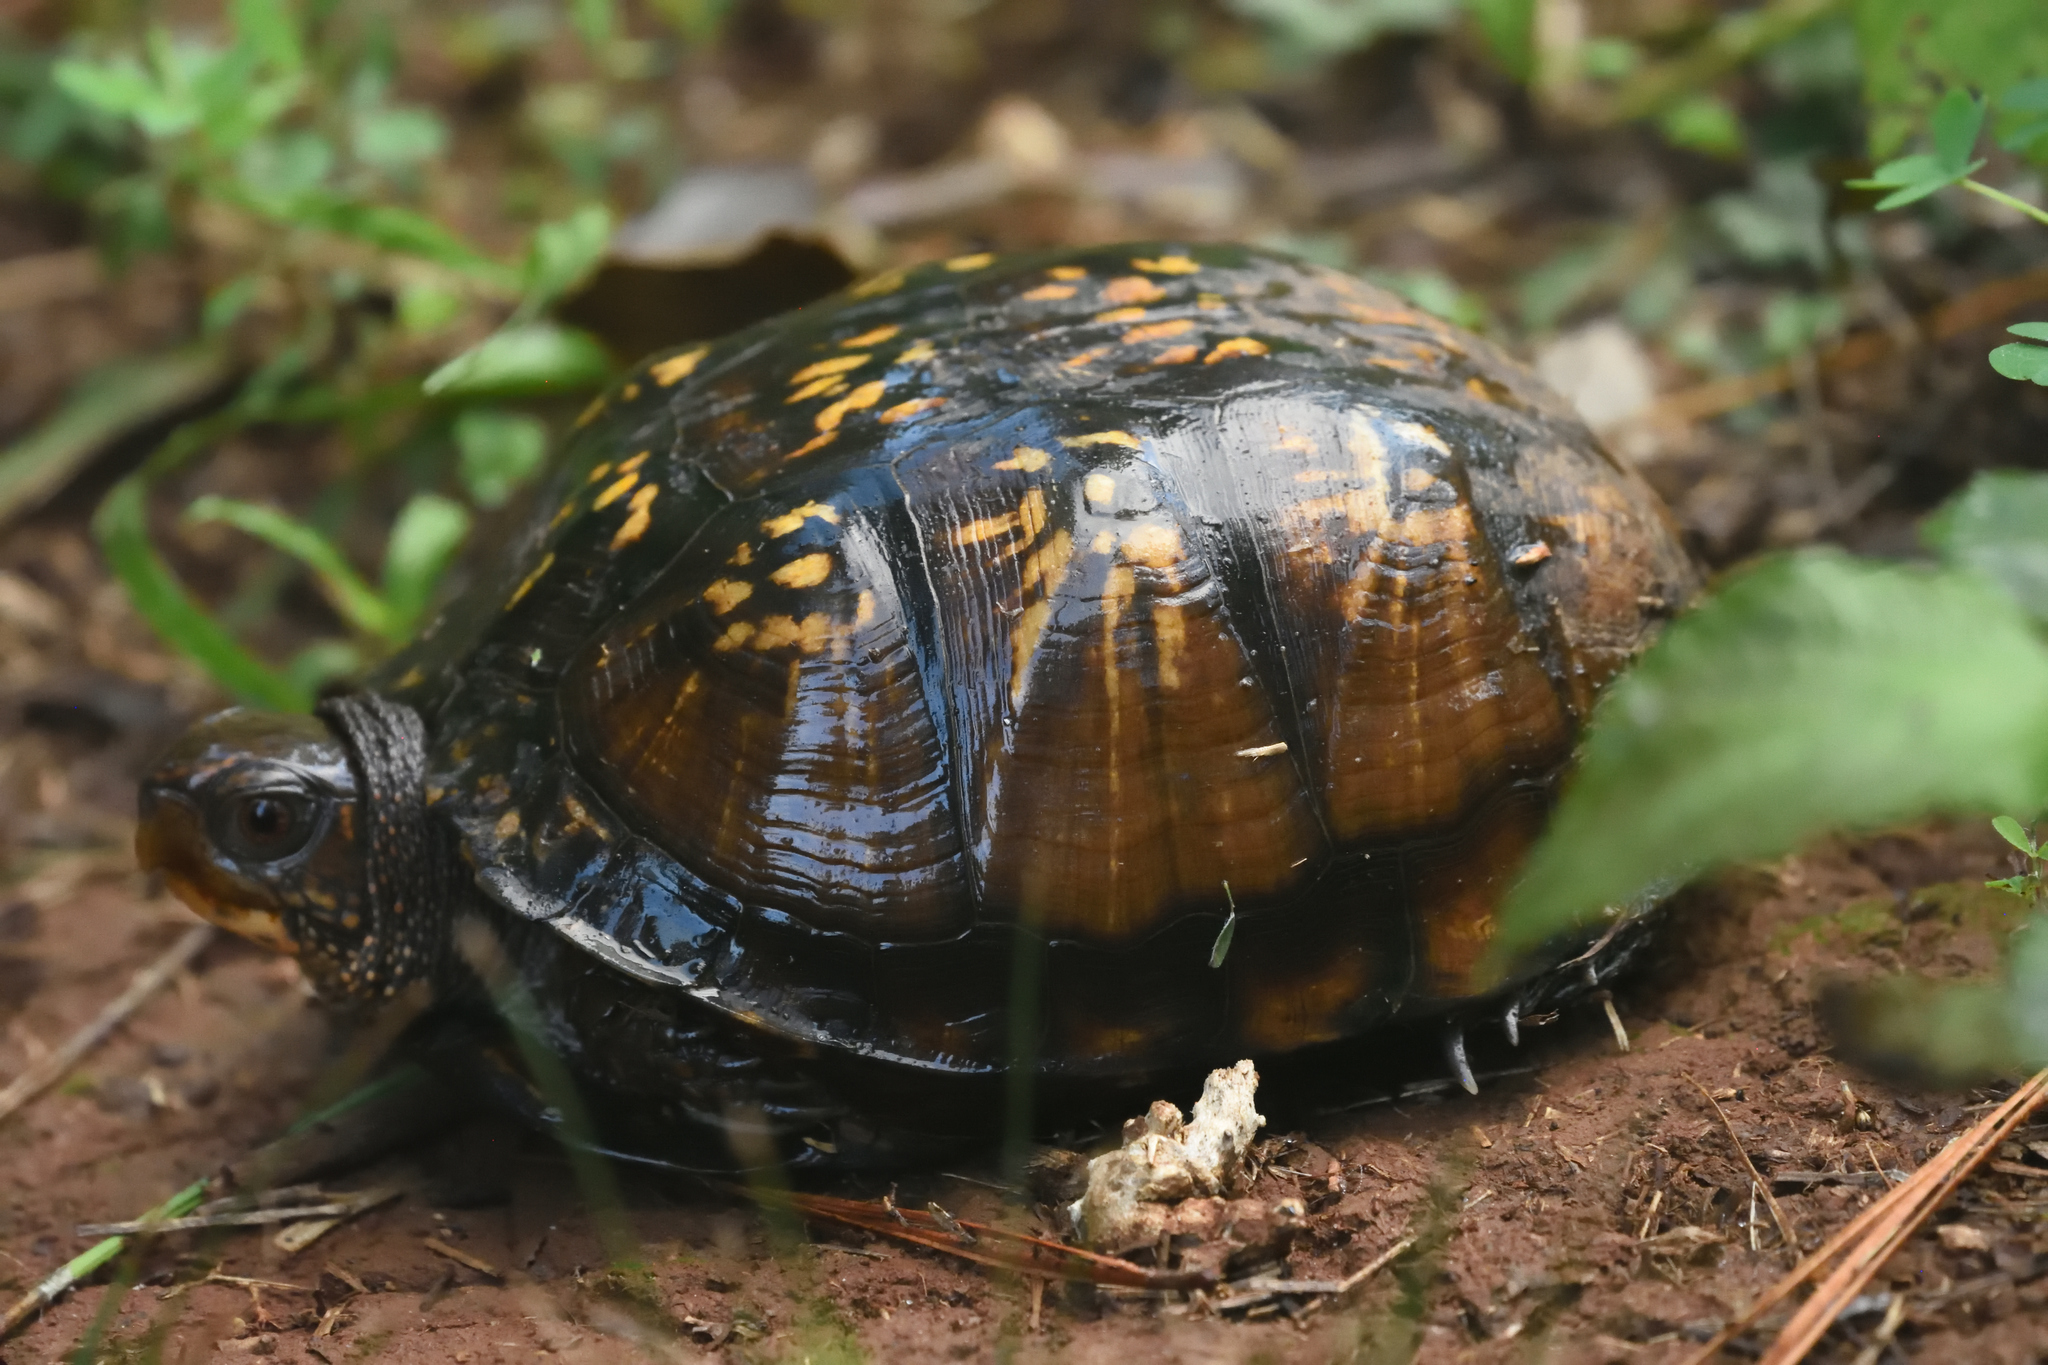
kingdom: Animalia
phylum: Chordata
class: Testudines
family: Emydidae
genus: Terrapene
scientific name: Terrapene carolina
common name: Common box turtle
